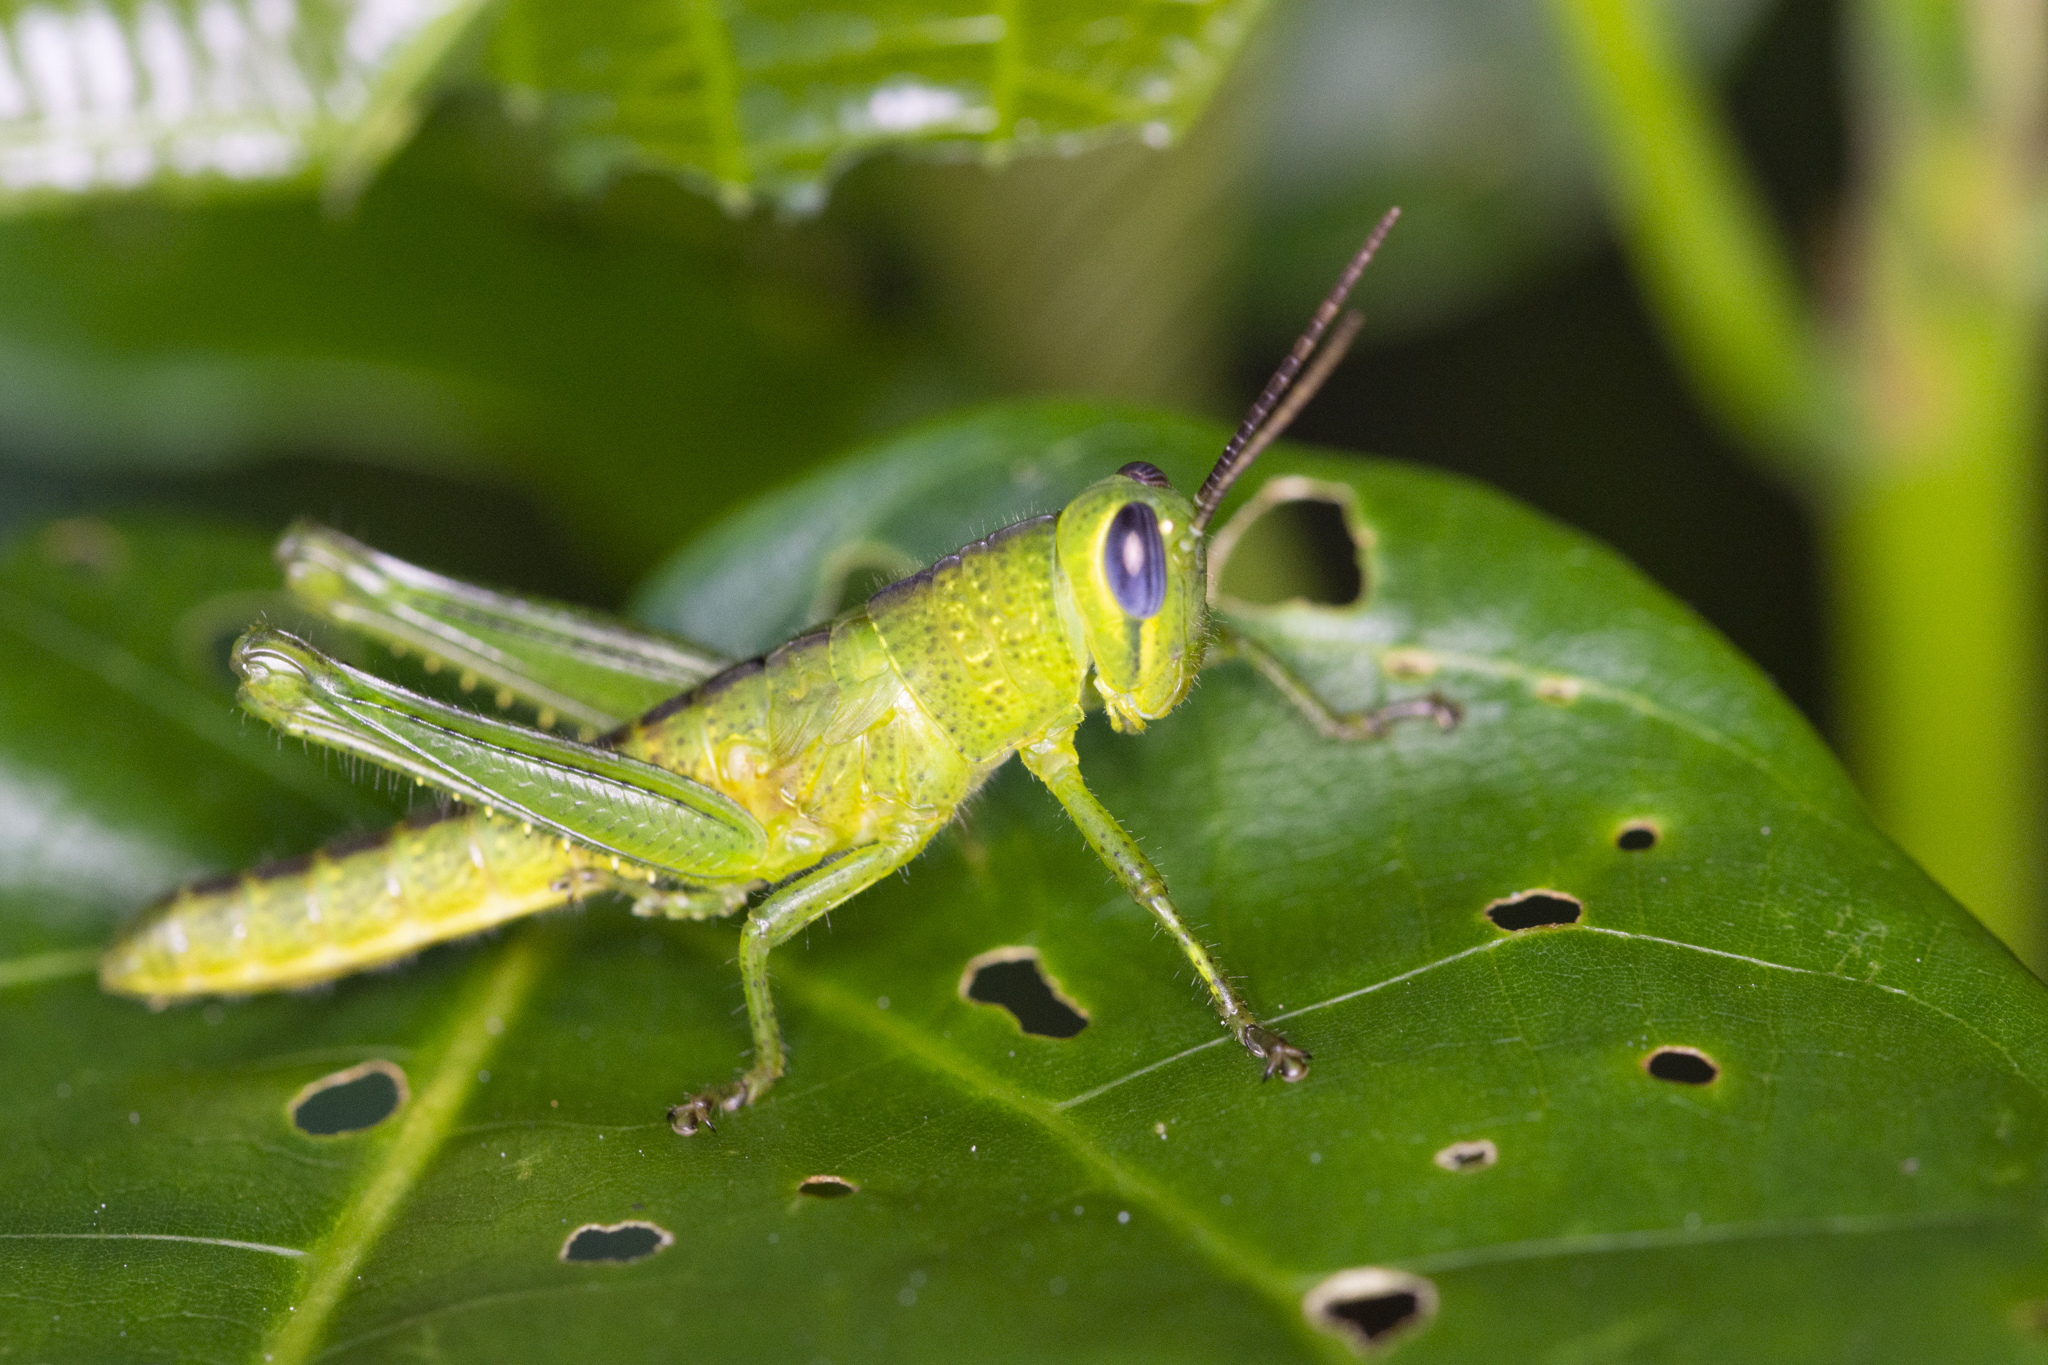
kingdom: Animalia
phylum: Arthropoda
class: Insecta
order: Orthoptera
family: Acrididae
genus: Valanga
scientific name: Valanga nigricornis
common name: Javanese bird grasshopper
